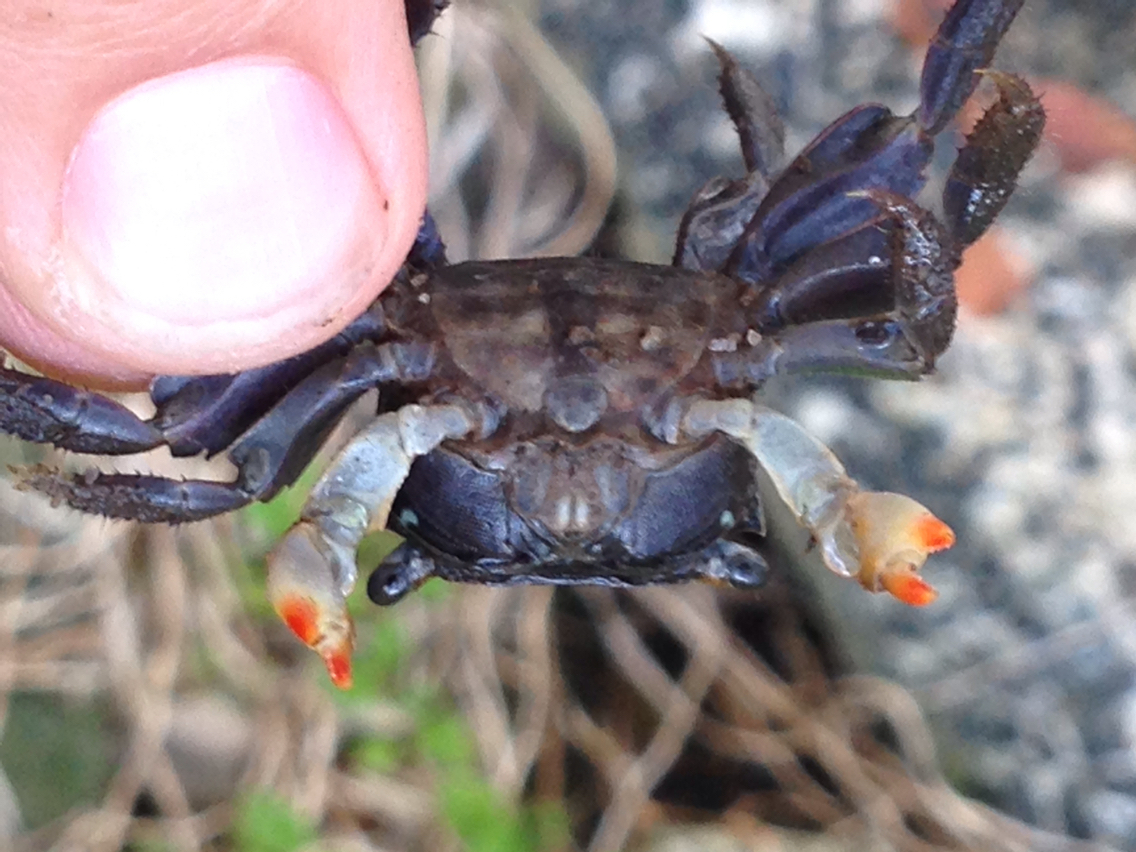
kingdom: Animalia
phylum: Arthropoda
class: Malacostraca
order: Decapoda
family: Sesarmidae
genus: Parasesarma
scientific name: Parasesarma erythodactylum
